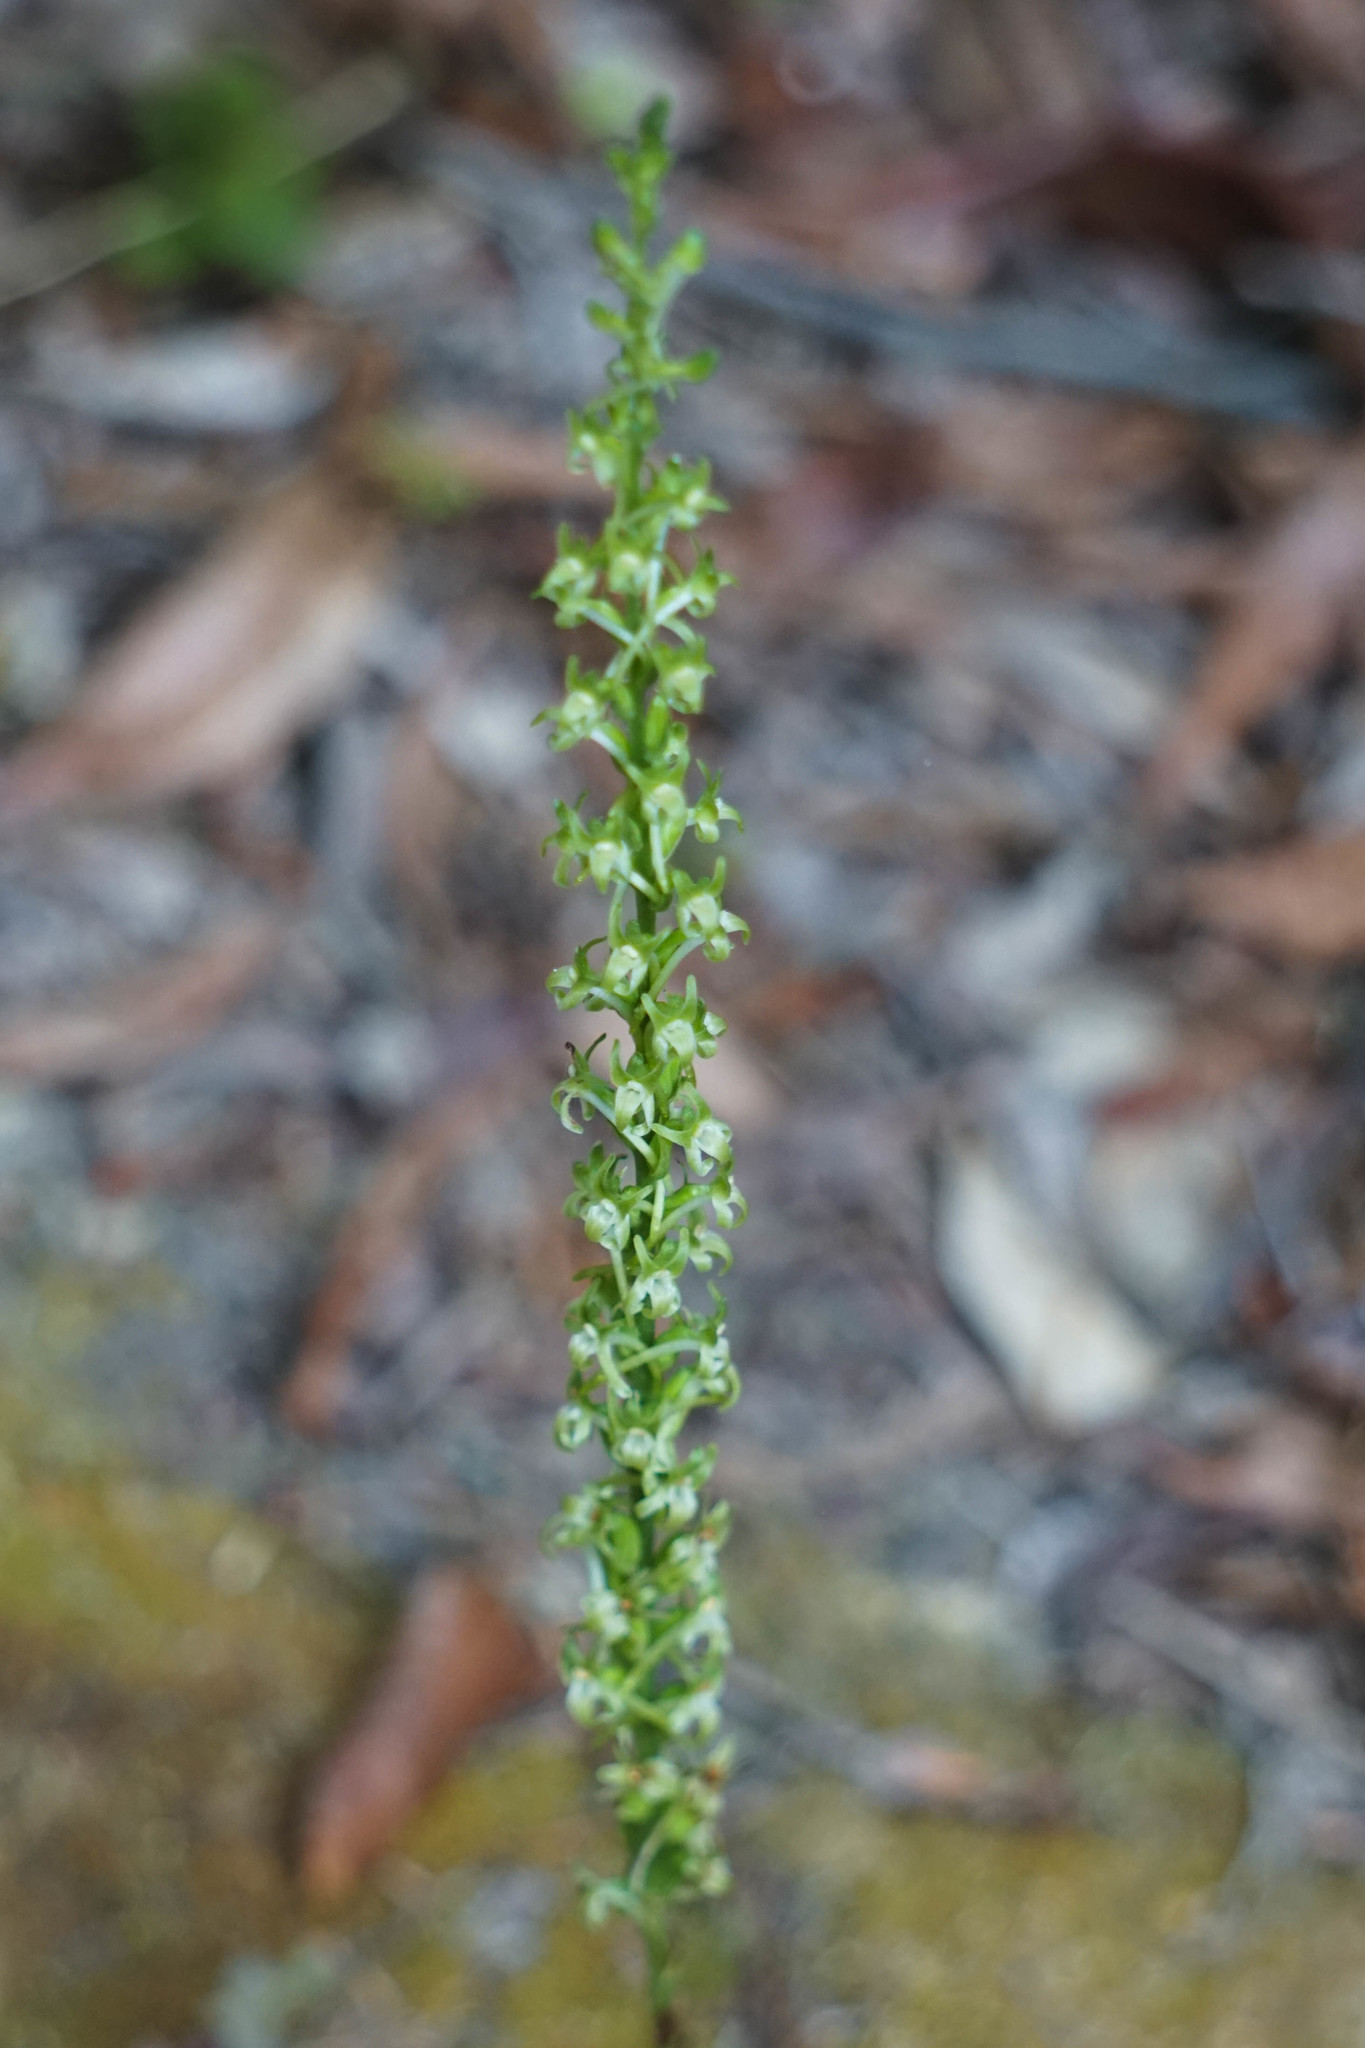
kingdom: Plantae
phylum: Tracheophyta
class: Liliopsida
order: Asparagales
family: Orchidaceae
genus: Platanthera
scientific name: Platanthera elongata
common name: Dense-flowered rein orchid
